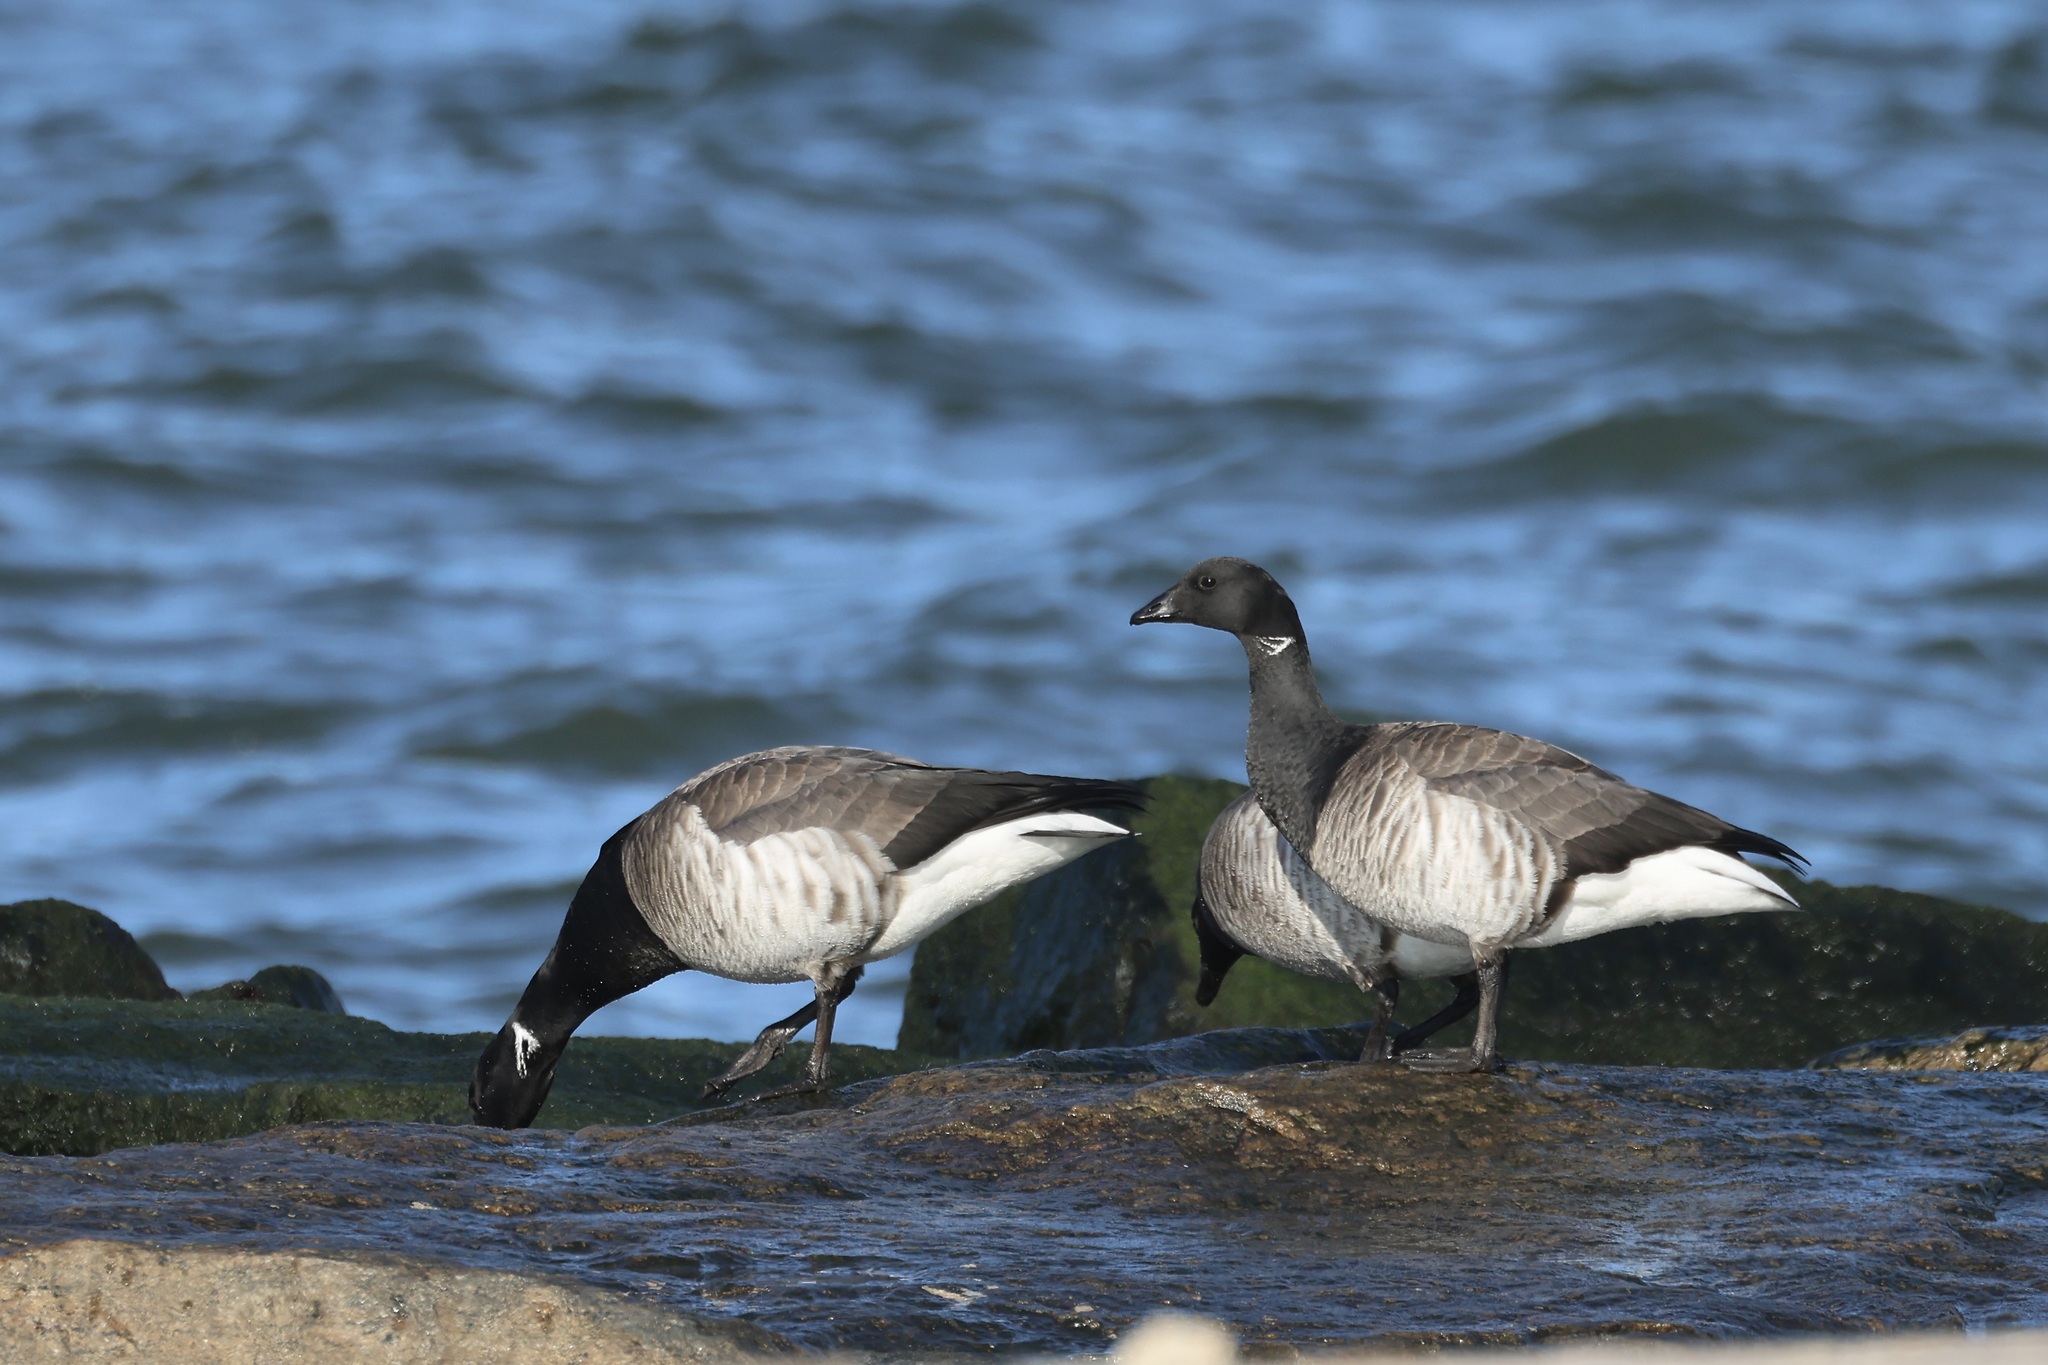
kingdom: Animalia
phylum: Chordata
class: Aves
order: Anseriformes
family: Anatidae
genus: Branta
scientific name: Branta bernicla
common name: Brant goose
